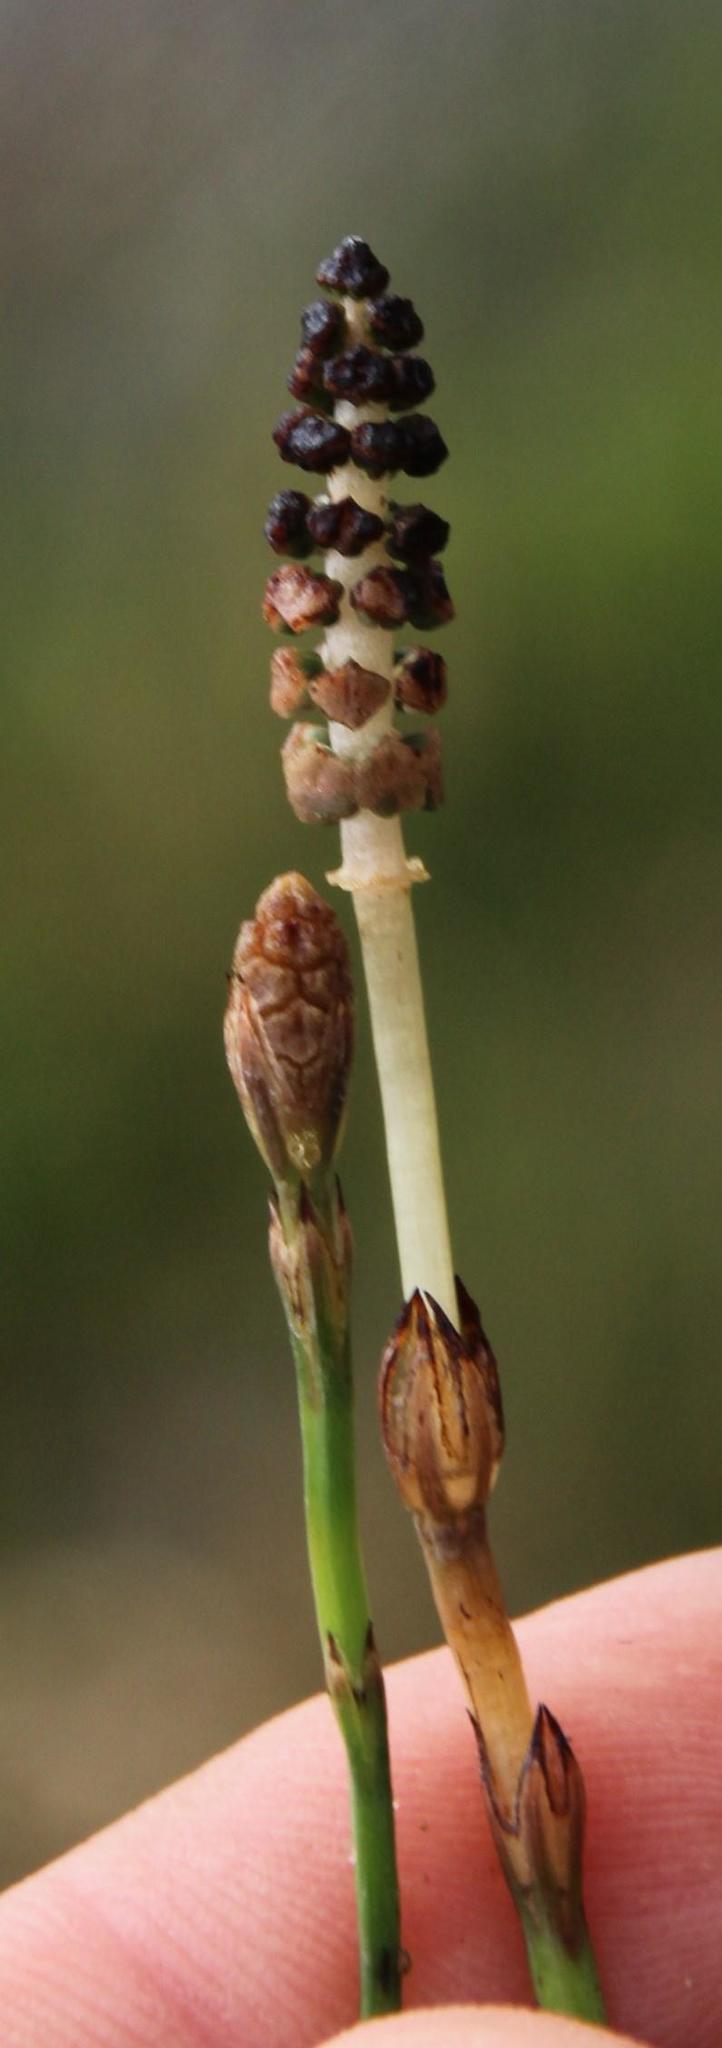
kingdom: Plantae
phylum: Tracheophyta
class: Polypodiopsida
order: Equisetales
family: Equisetaceae
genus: Equisetum
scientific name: Equisetum bogotense
